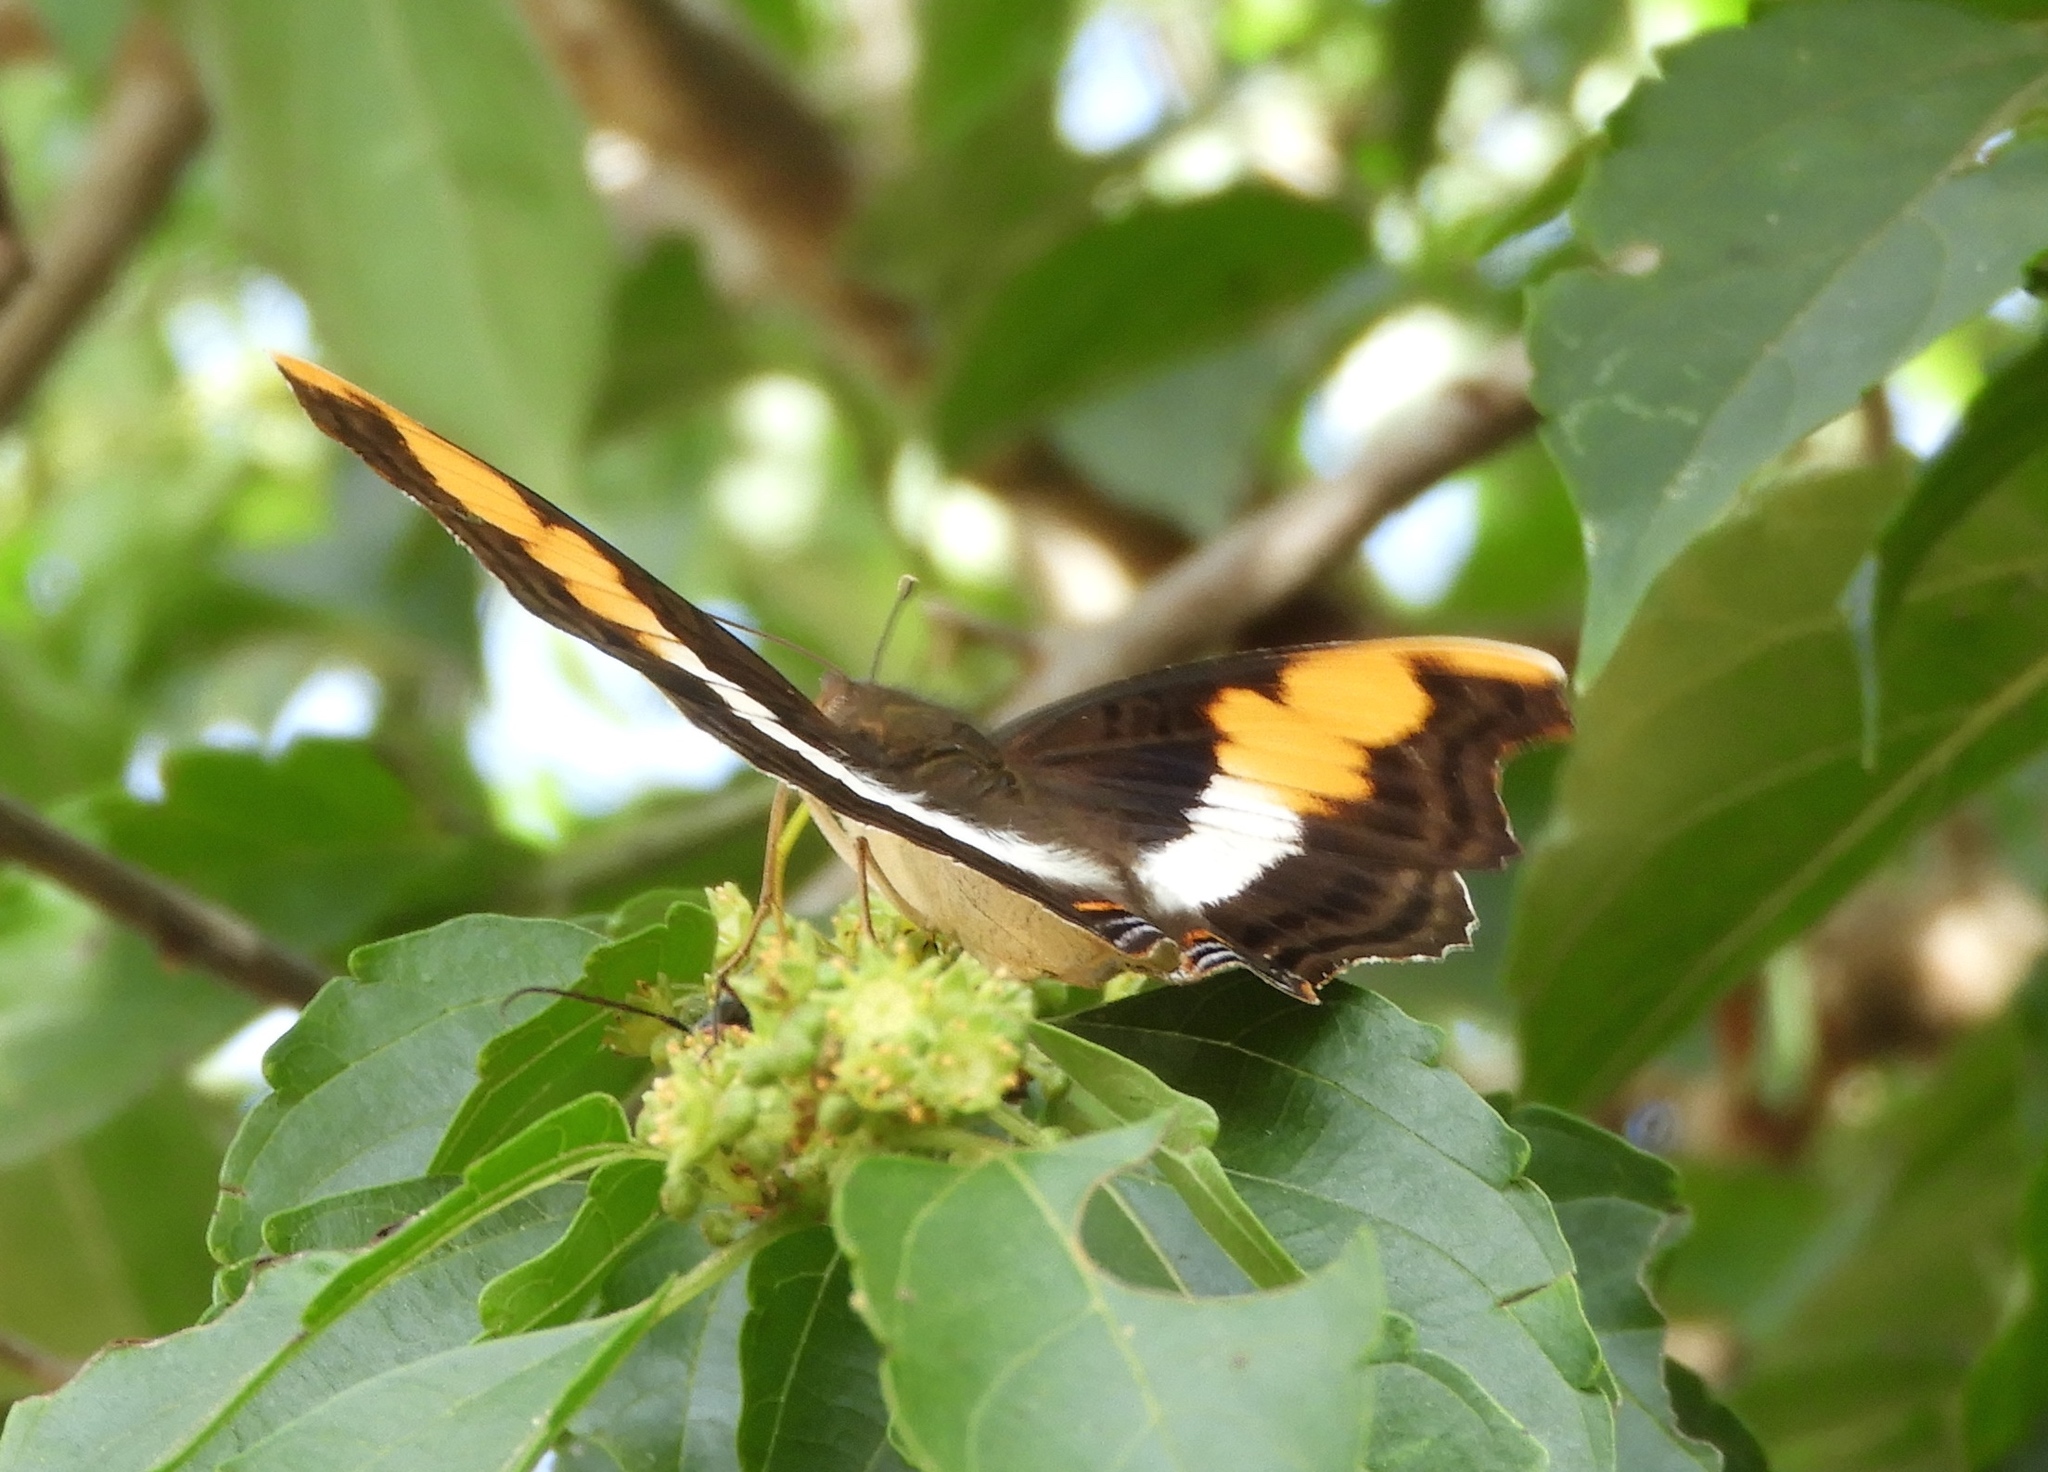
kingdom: Animalia
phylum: Arthropoda
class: Insecta
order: Lepidoptera
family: Nymphalidae
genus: Doxocopa
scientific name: Doxocopa laure
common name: Silver emperor
